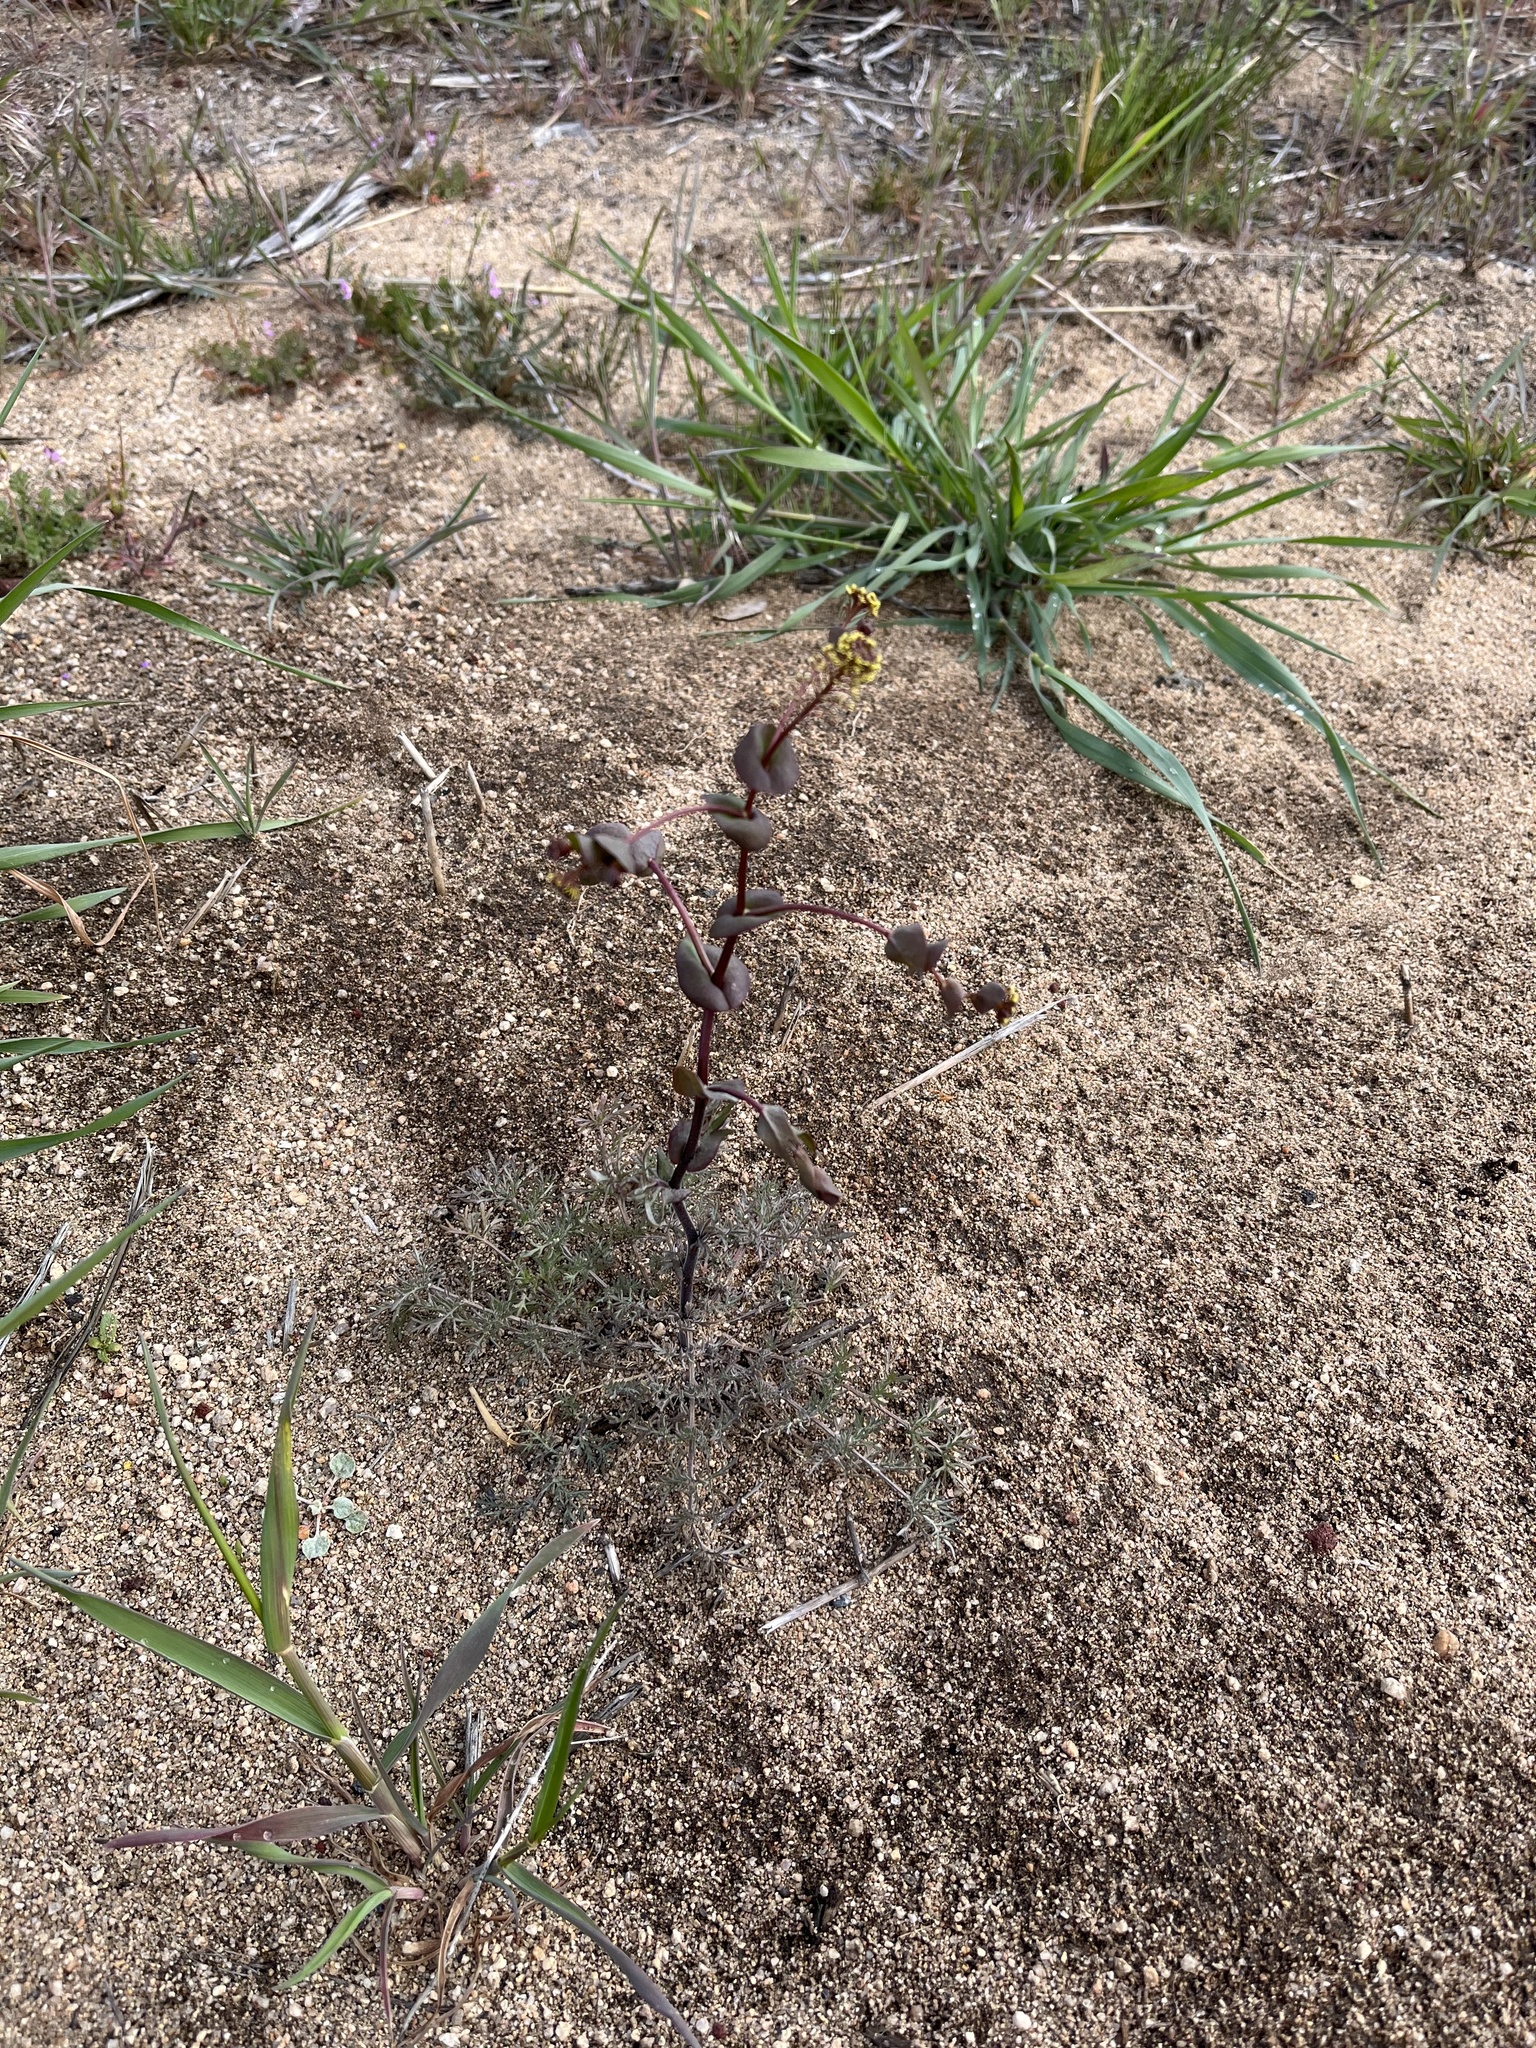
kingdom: Plantae
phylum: Tracheophyta
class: Magnoliopsida
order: Brassicales
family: Brassicaceae
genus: Lepidium
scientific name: Lepidium perfoliatum
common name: Perfoliate pepperwort
